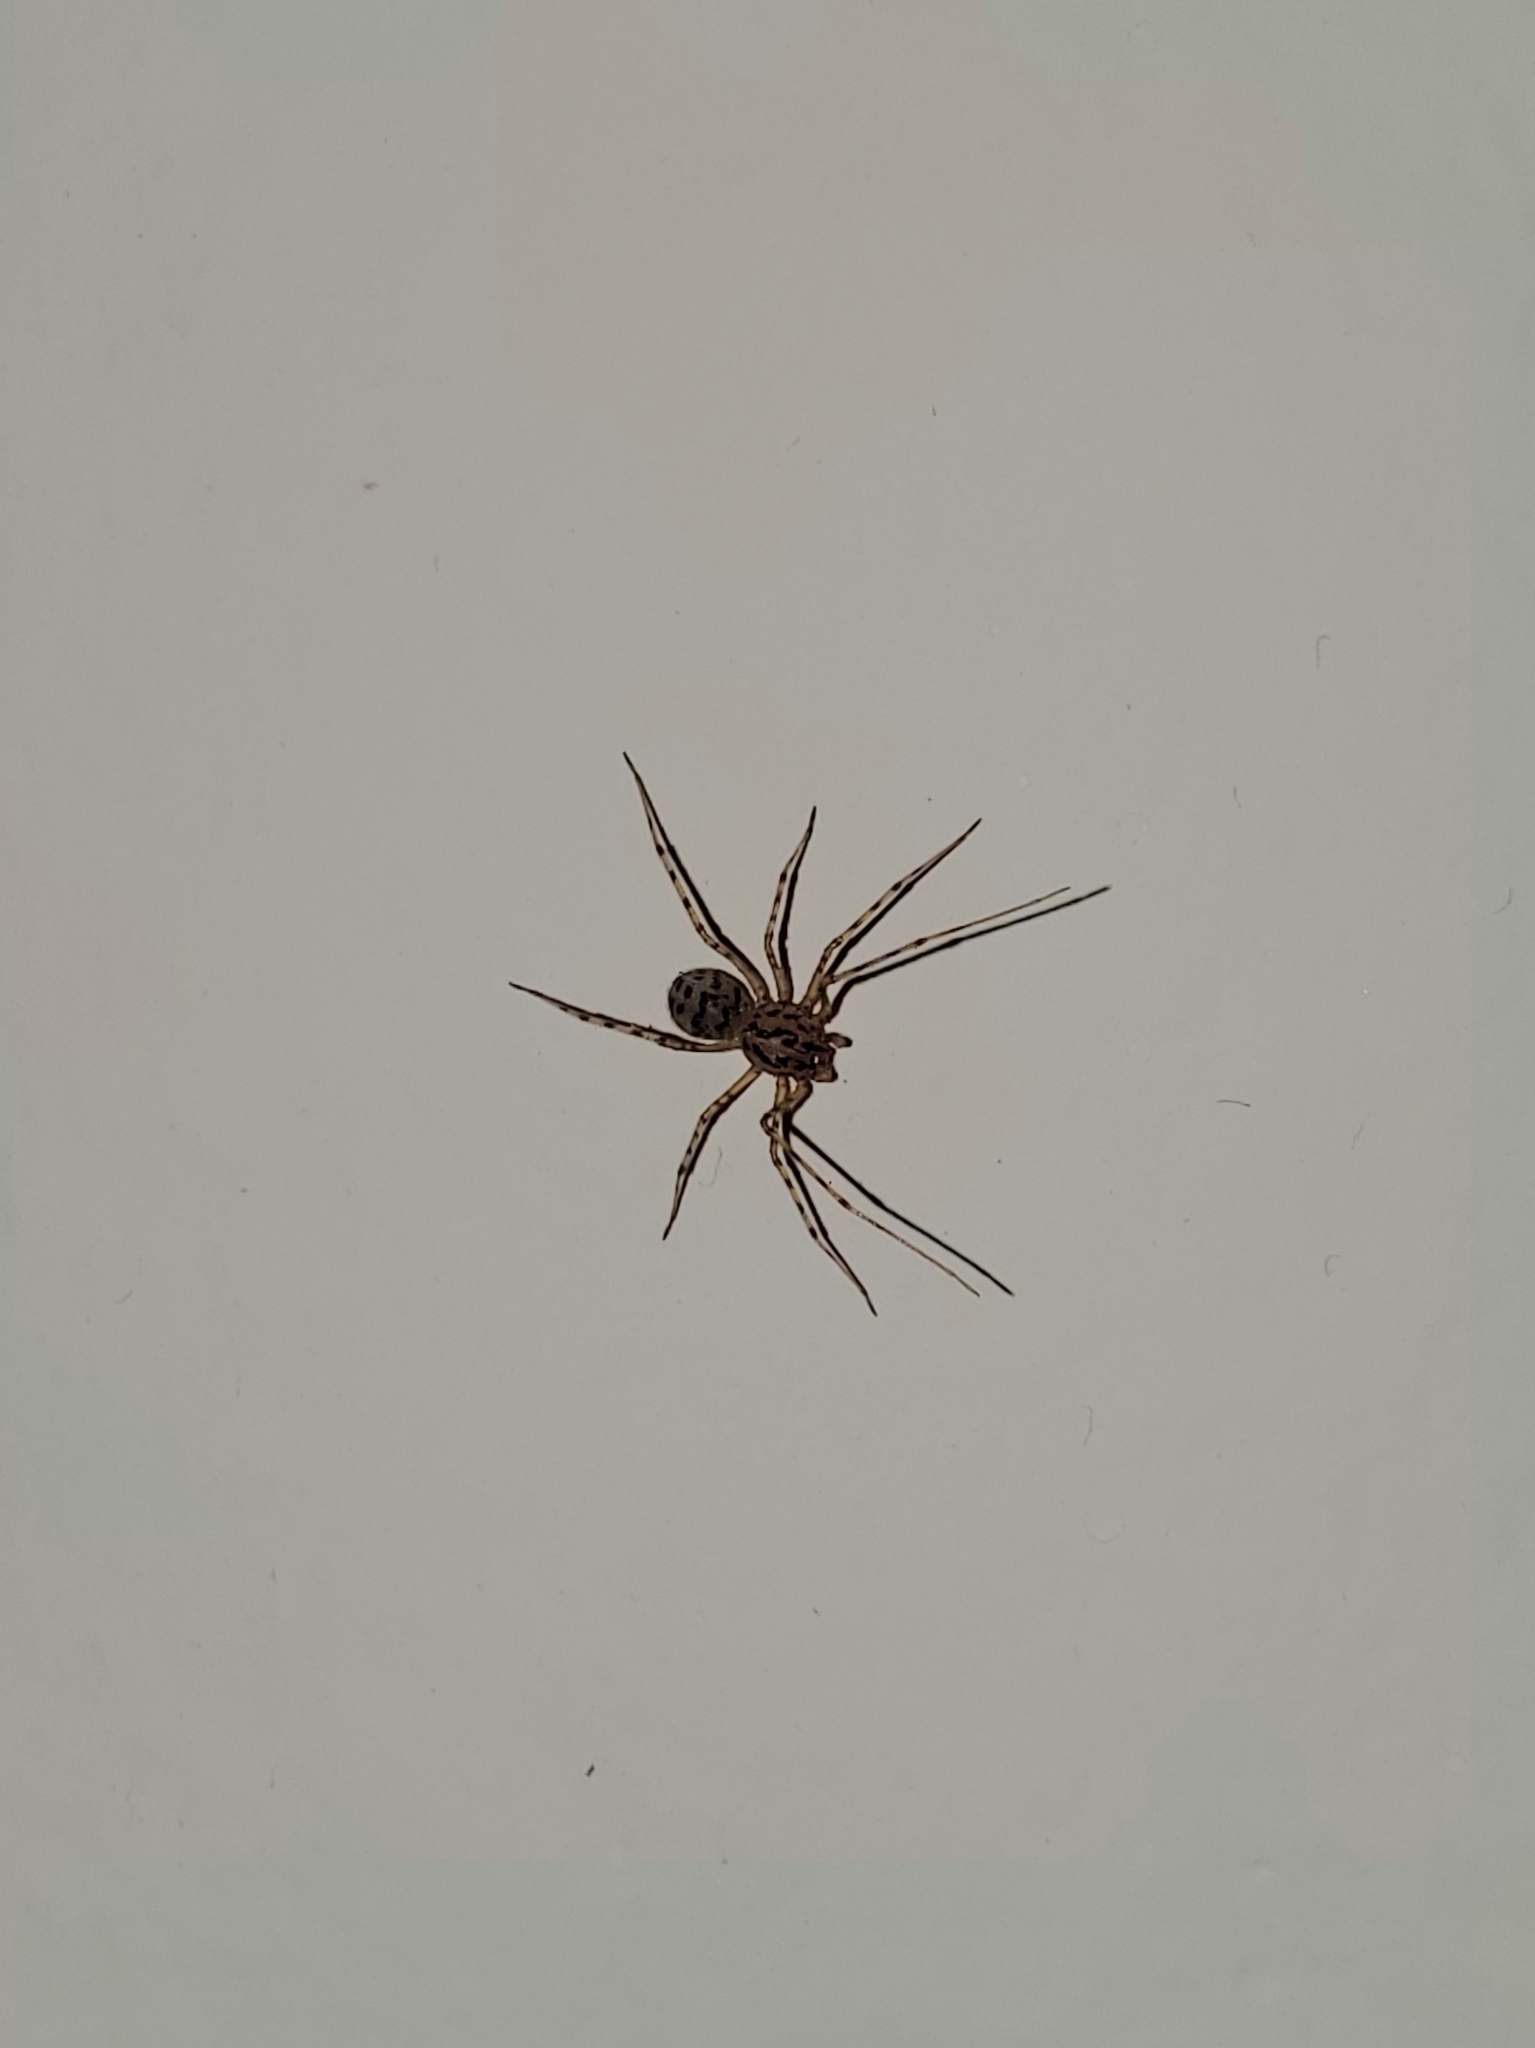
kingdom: Animalia
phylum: Arthropoda
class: Arachnida
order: Araneae
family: Scytodidae
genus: Scytodes
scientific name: Scytodes thoracica
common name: Spitting spider
